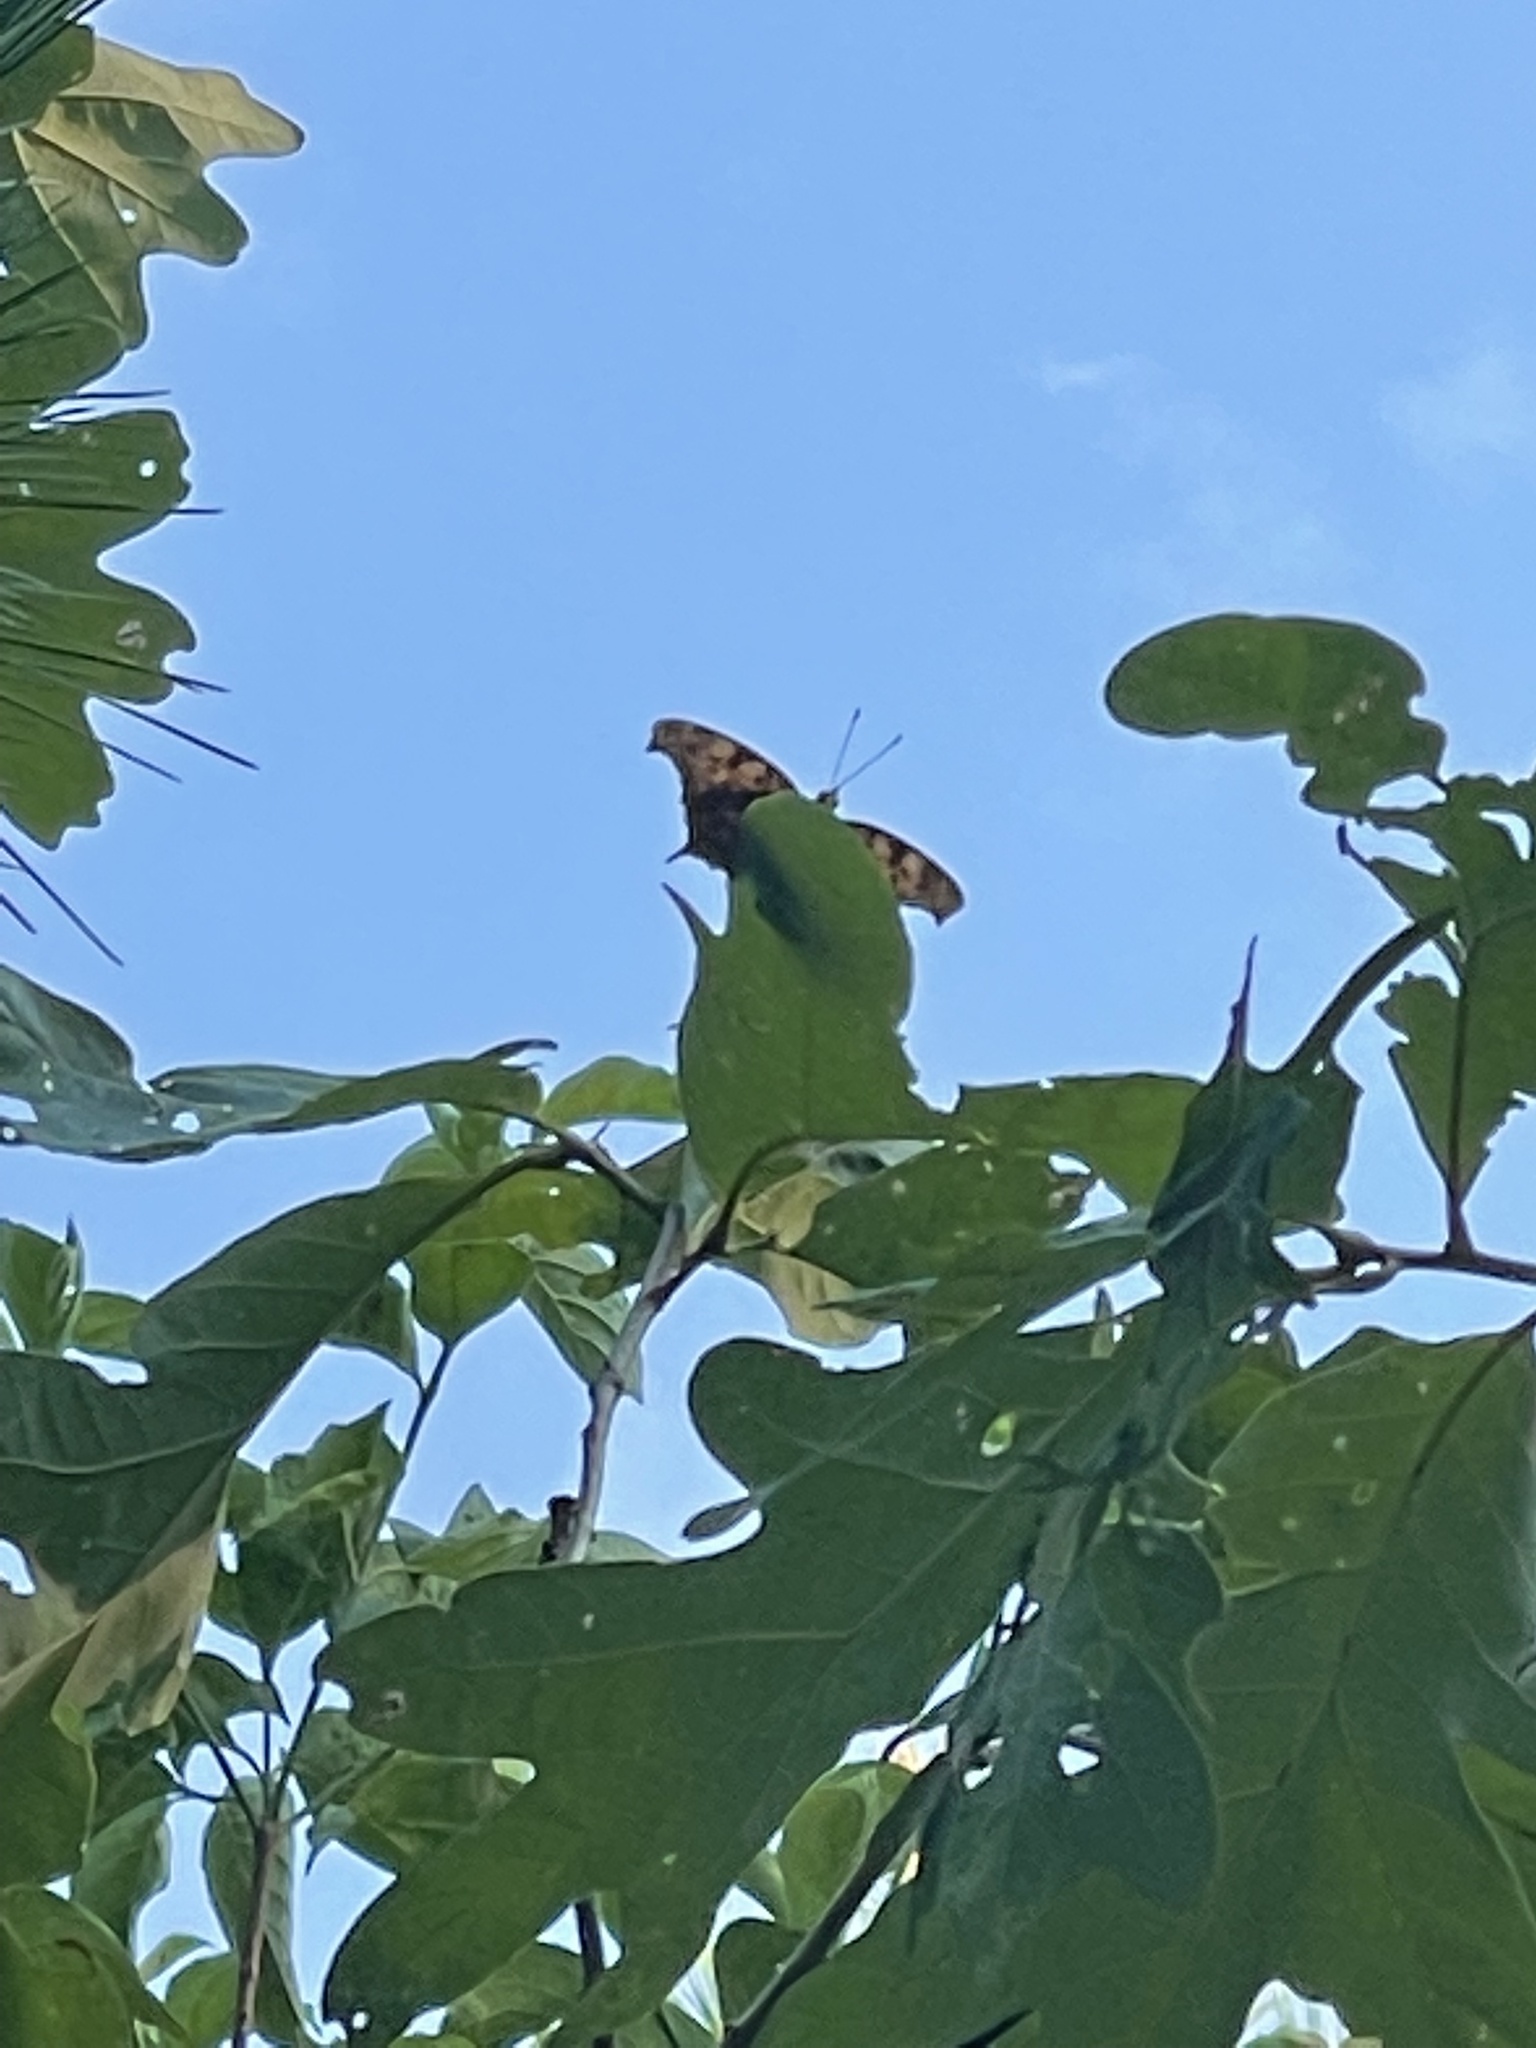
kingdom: Animalia
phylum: Arthropoda
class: Insecta
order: Lepidoptera
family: Nymphalidae
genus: Polygonia
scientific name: Polygonia interrogationis
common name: Question mark
